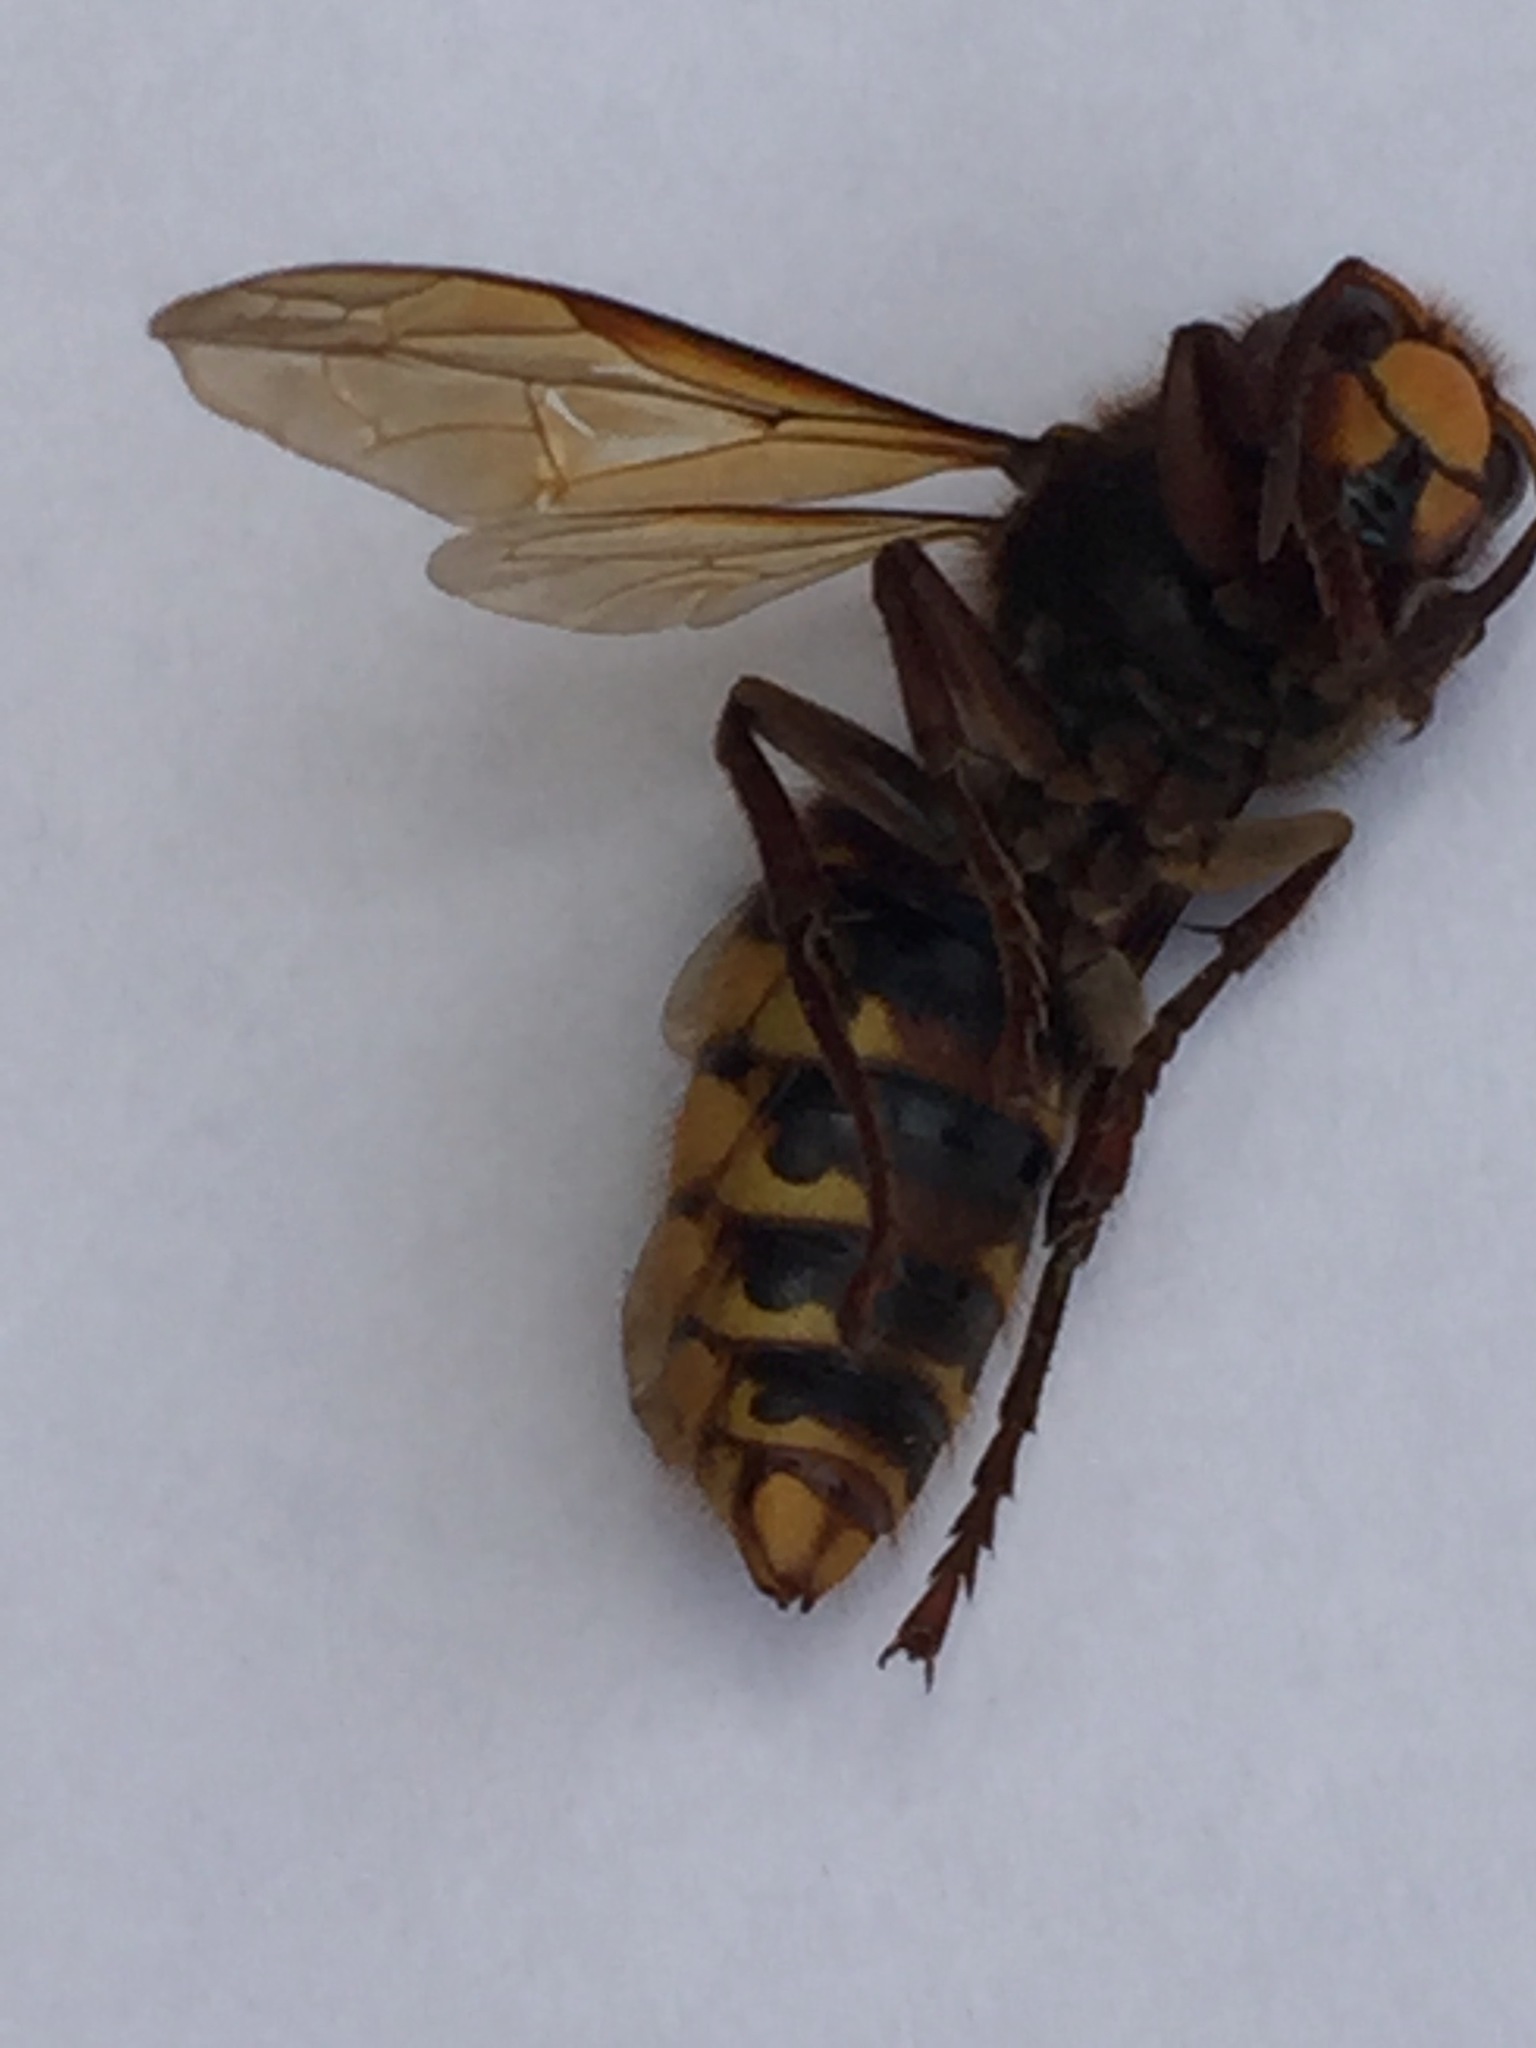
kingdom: Animalia
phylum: Arthropoda
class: Insecta
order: Hymenoptera
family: Vespidae
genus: Vespa
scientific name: Vespa crabro
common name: Hornet
